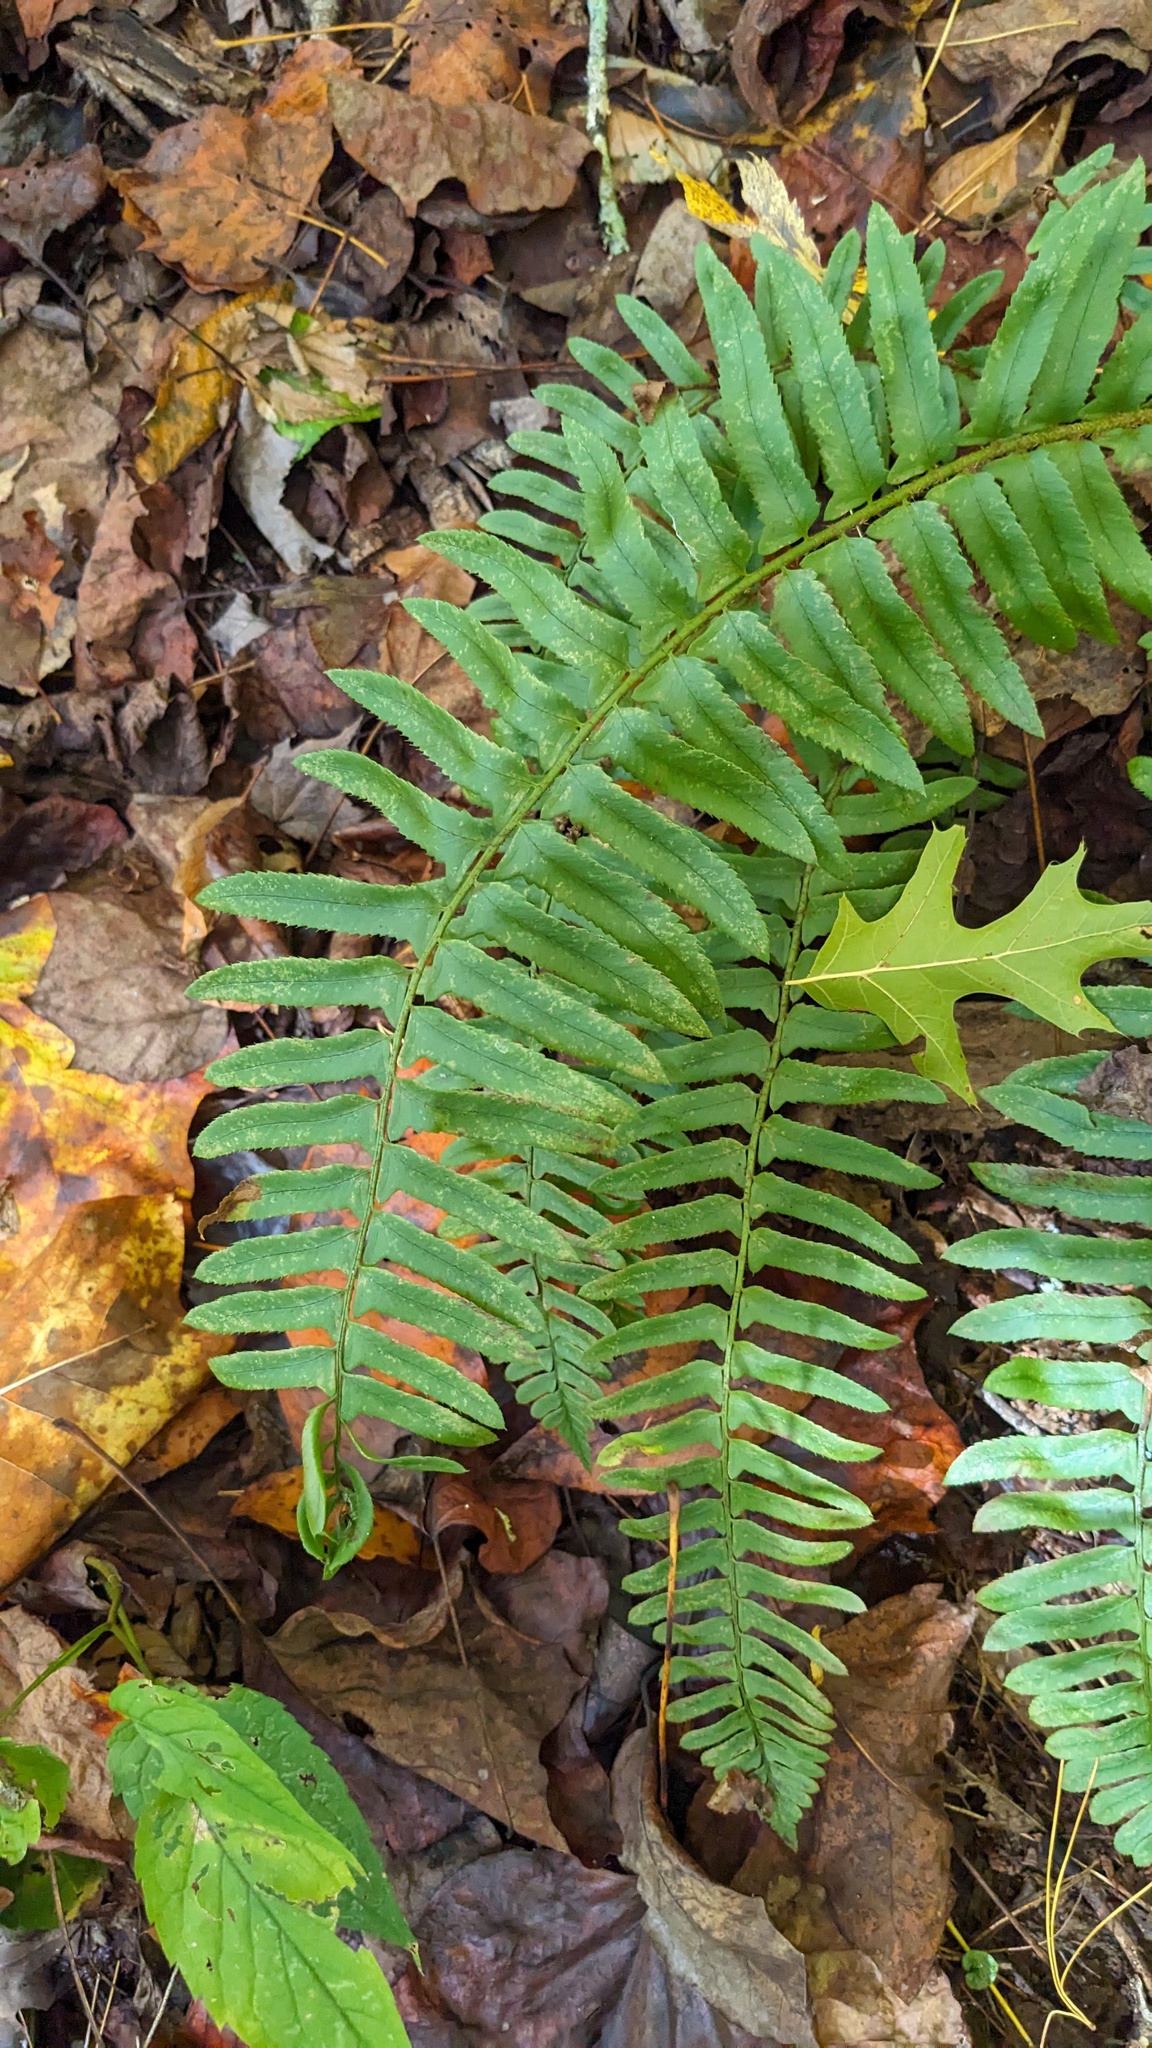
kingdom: Plantae
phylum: Tracheophyta
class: Polypodiopsida
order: Polypodiales
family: Dryopteridaceae
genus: Polystichum
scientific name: Polystichum acrostichoides
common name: Christmas fern
